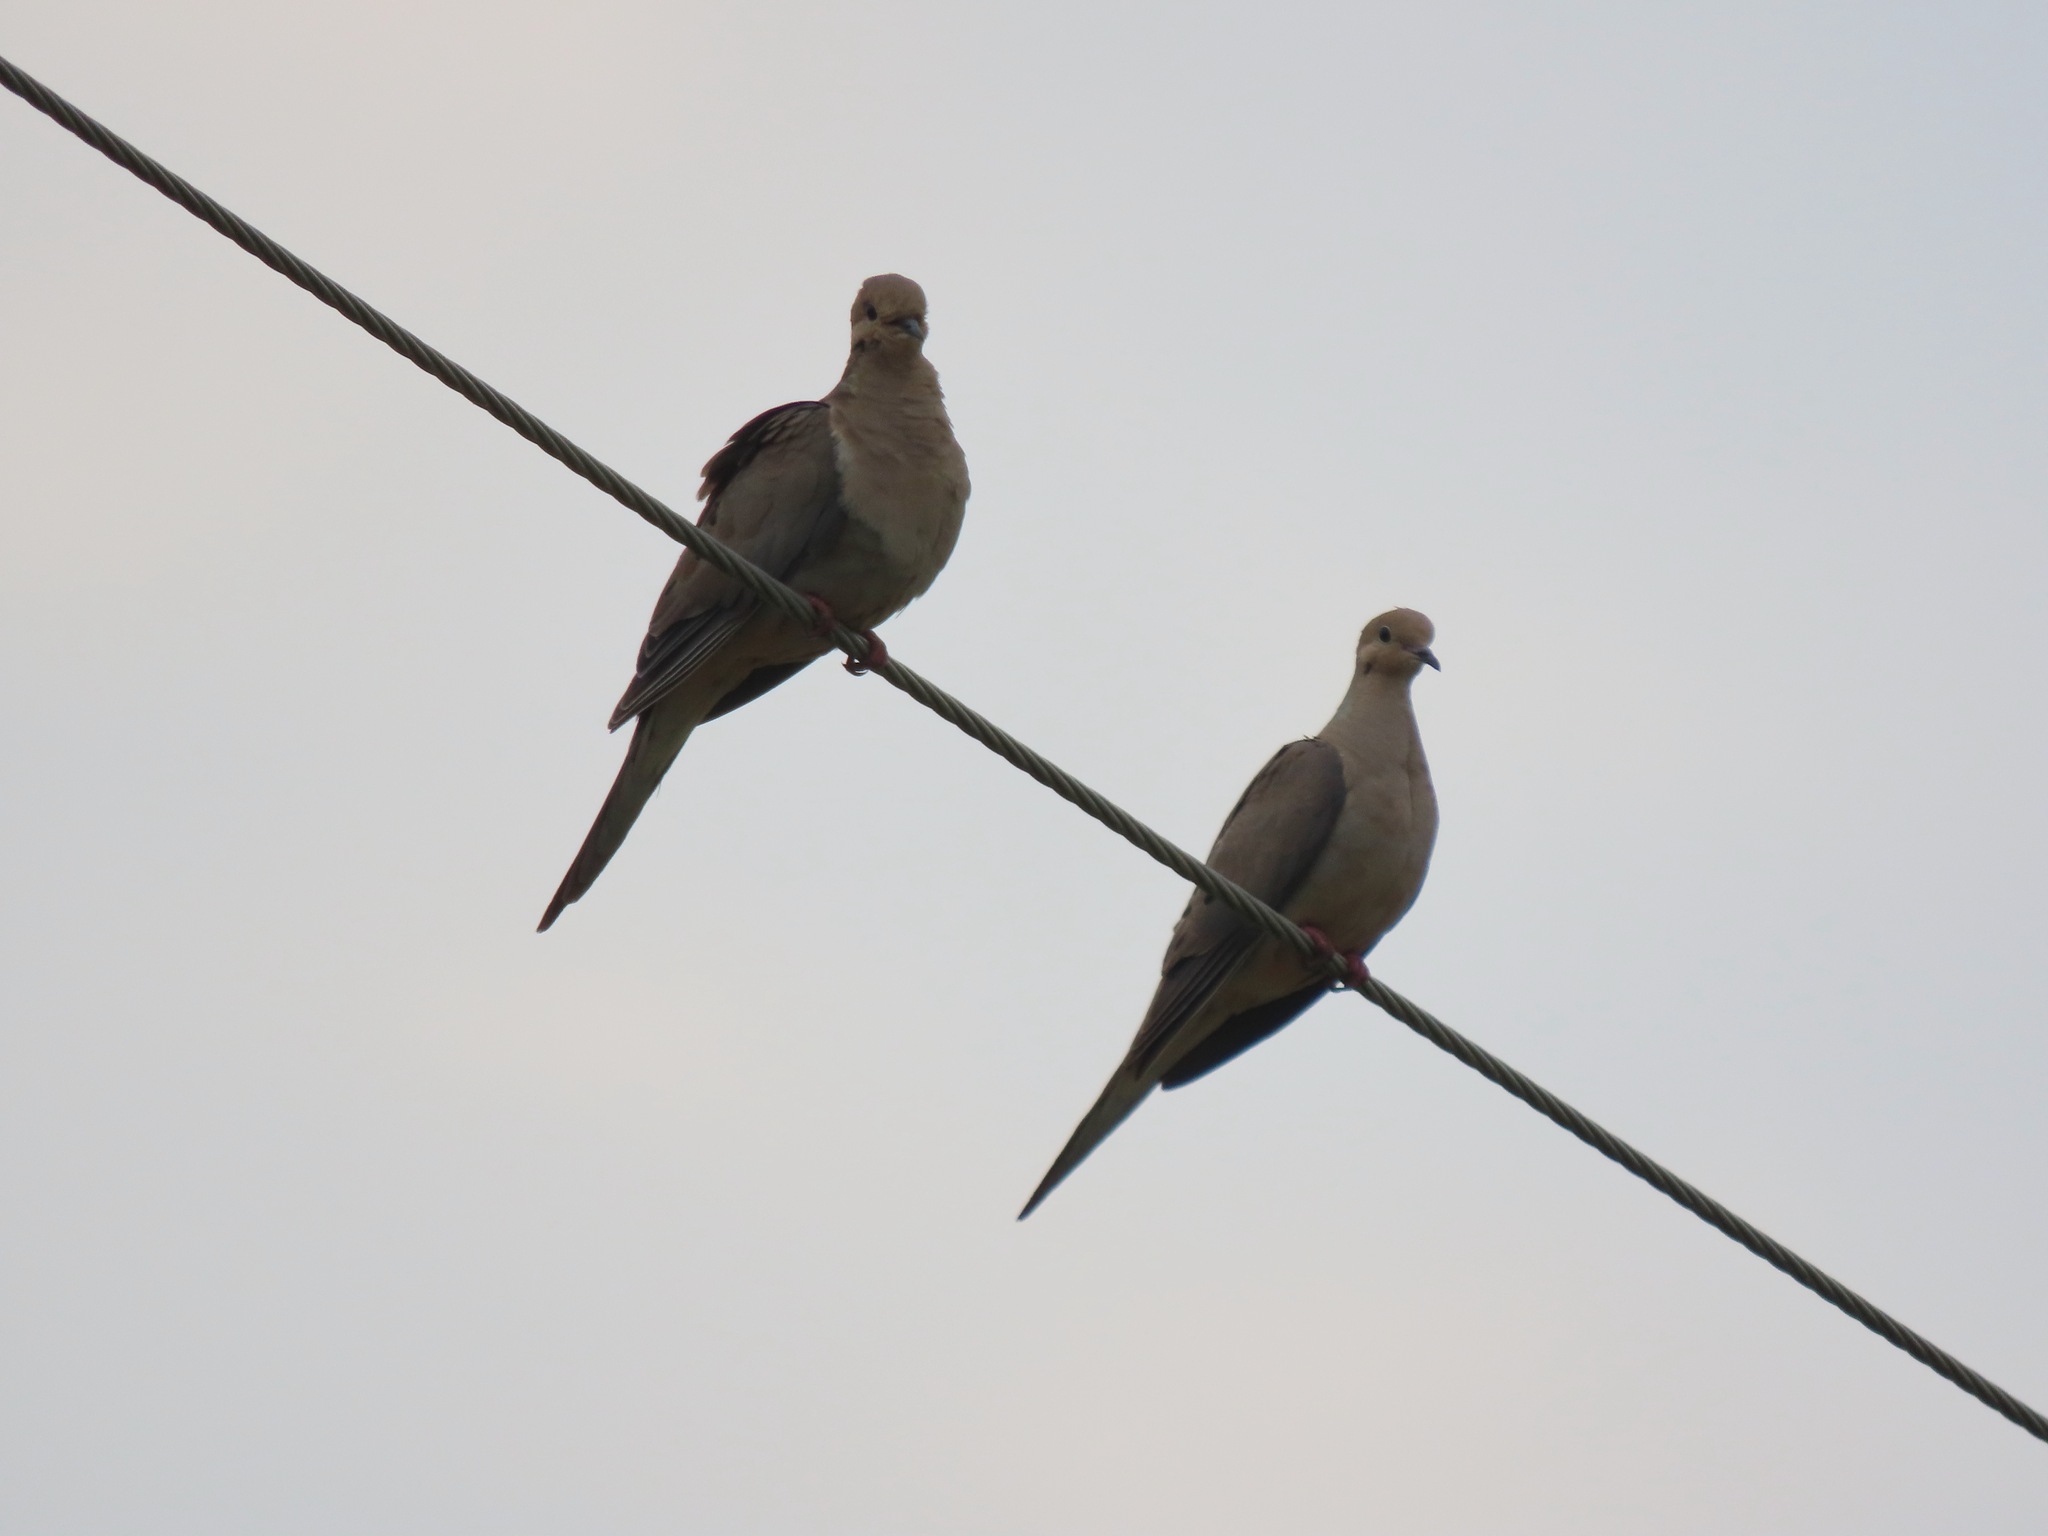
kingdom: Animalia
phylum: Chordata
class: Aves
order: Columbiformes
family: Columbidae
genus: Zenaida
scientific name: Zenaida macroura
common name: Mourning dove
